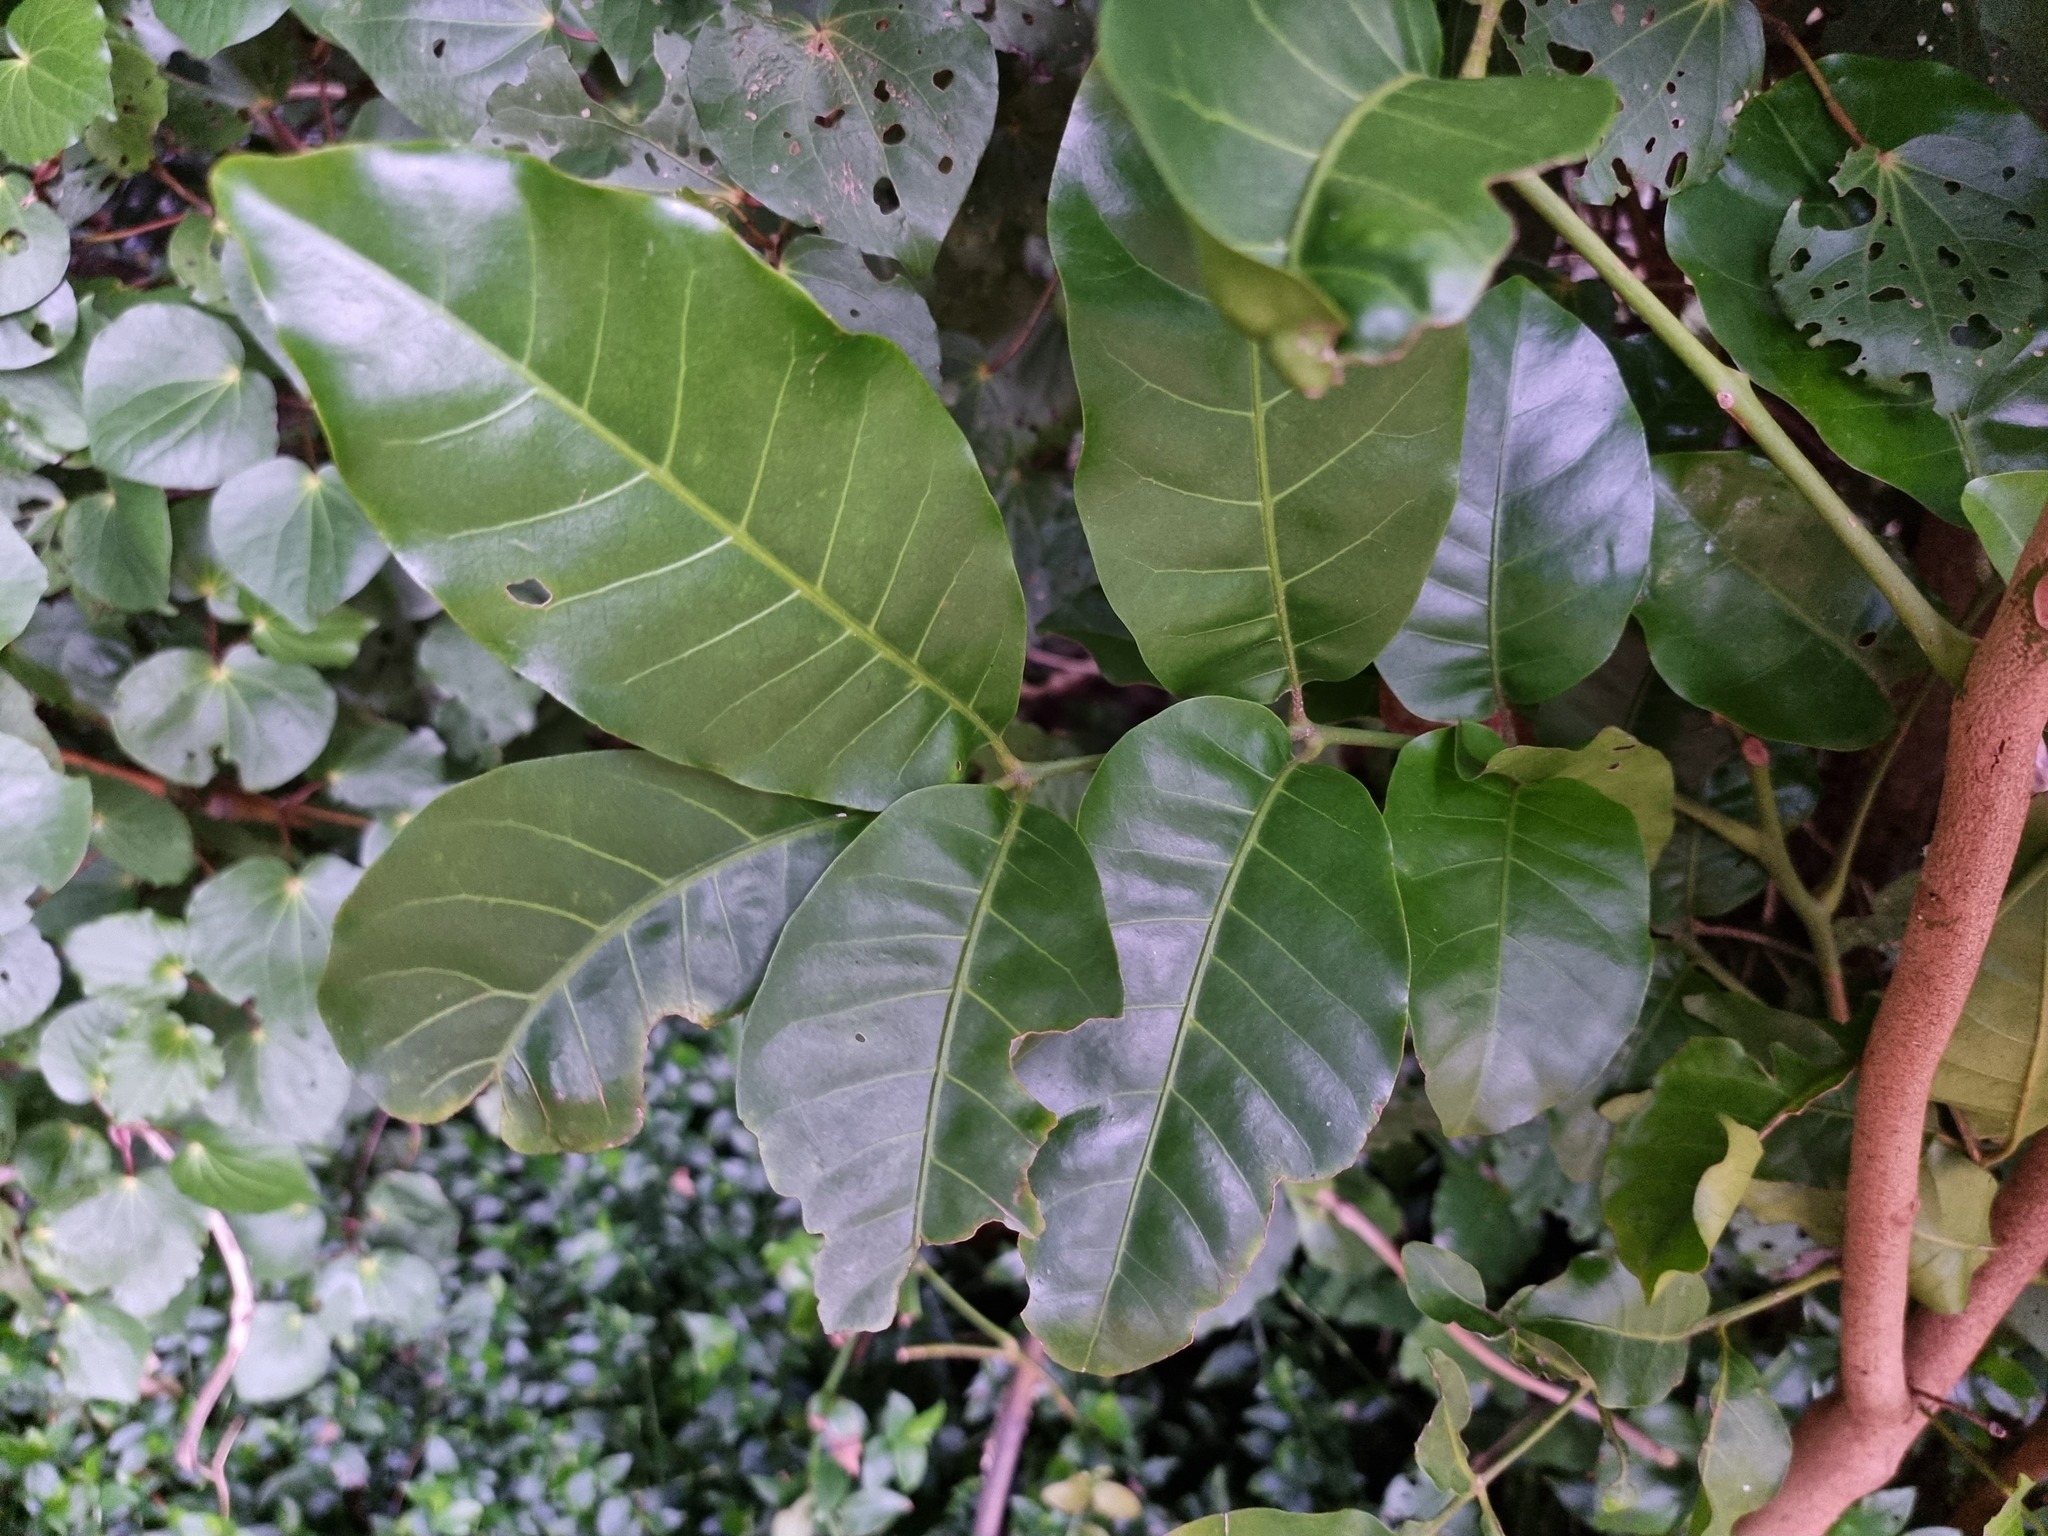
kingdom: Plantae
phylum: Tracheophyta
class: Magnoliopsida
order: Sapindales
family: Meliaceae
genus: Didymocheton
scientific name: Didymocheton spectabilis
